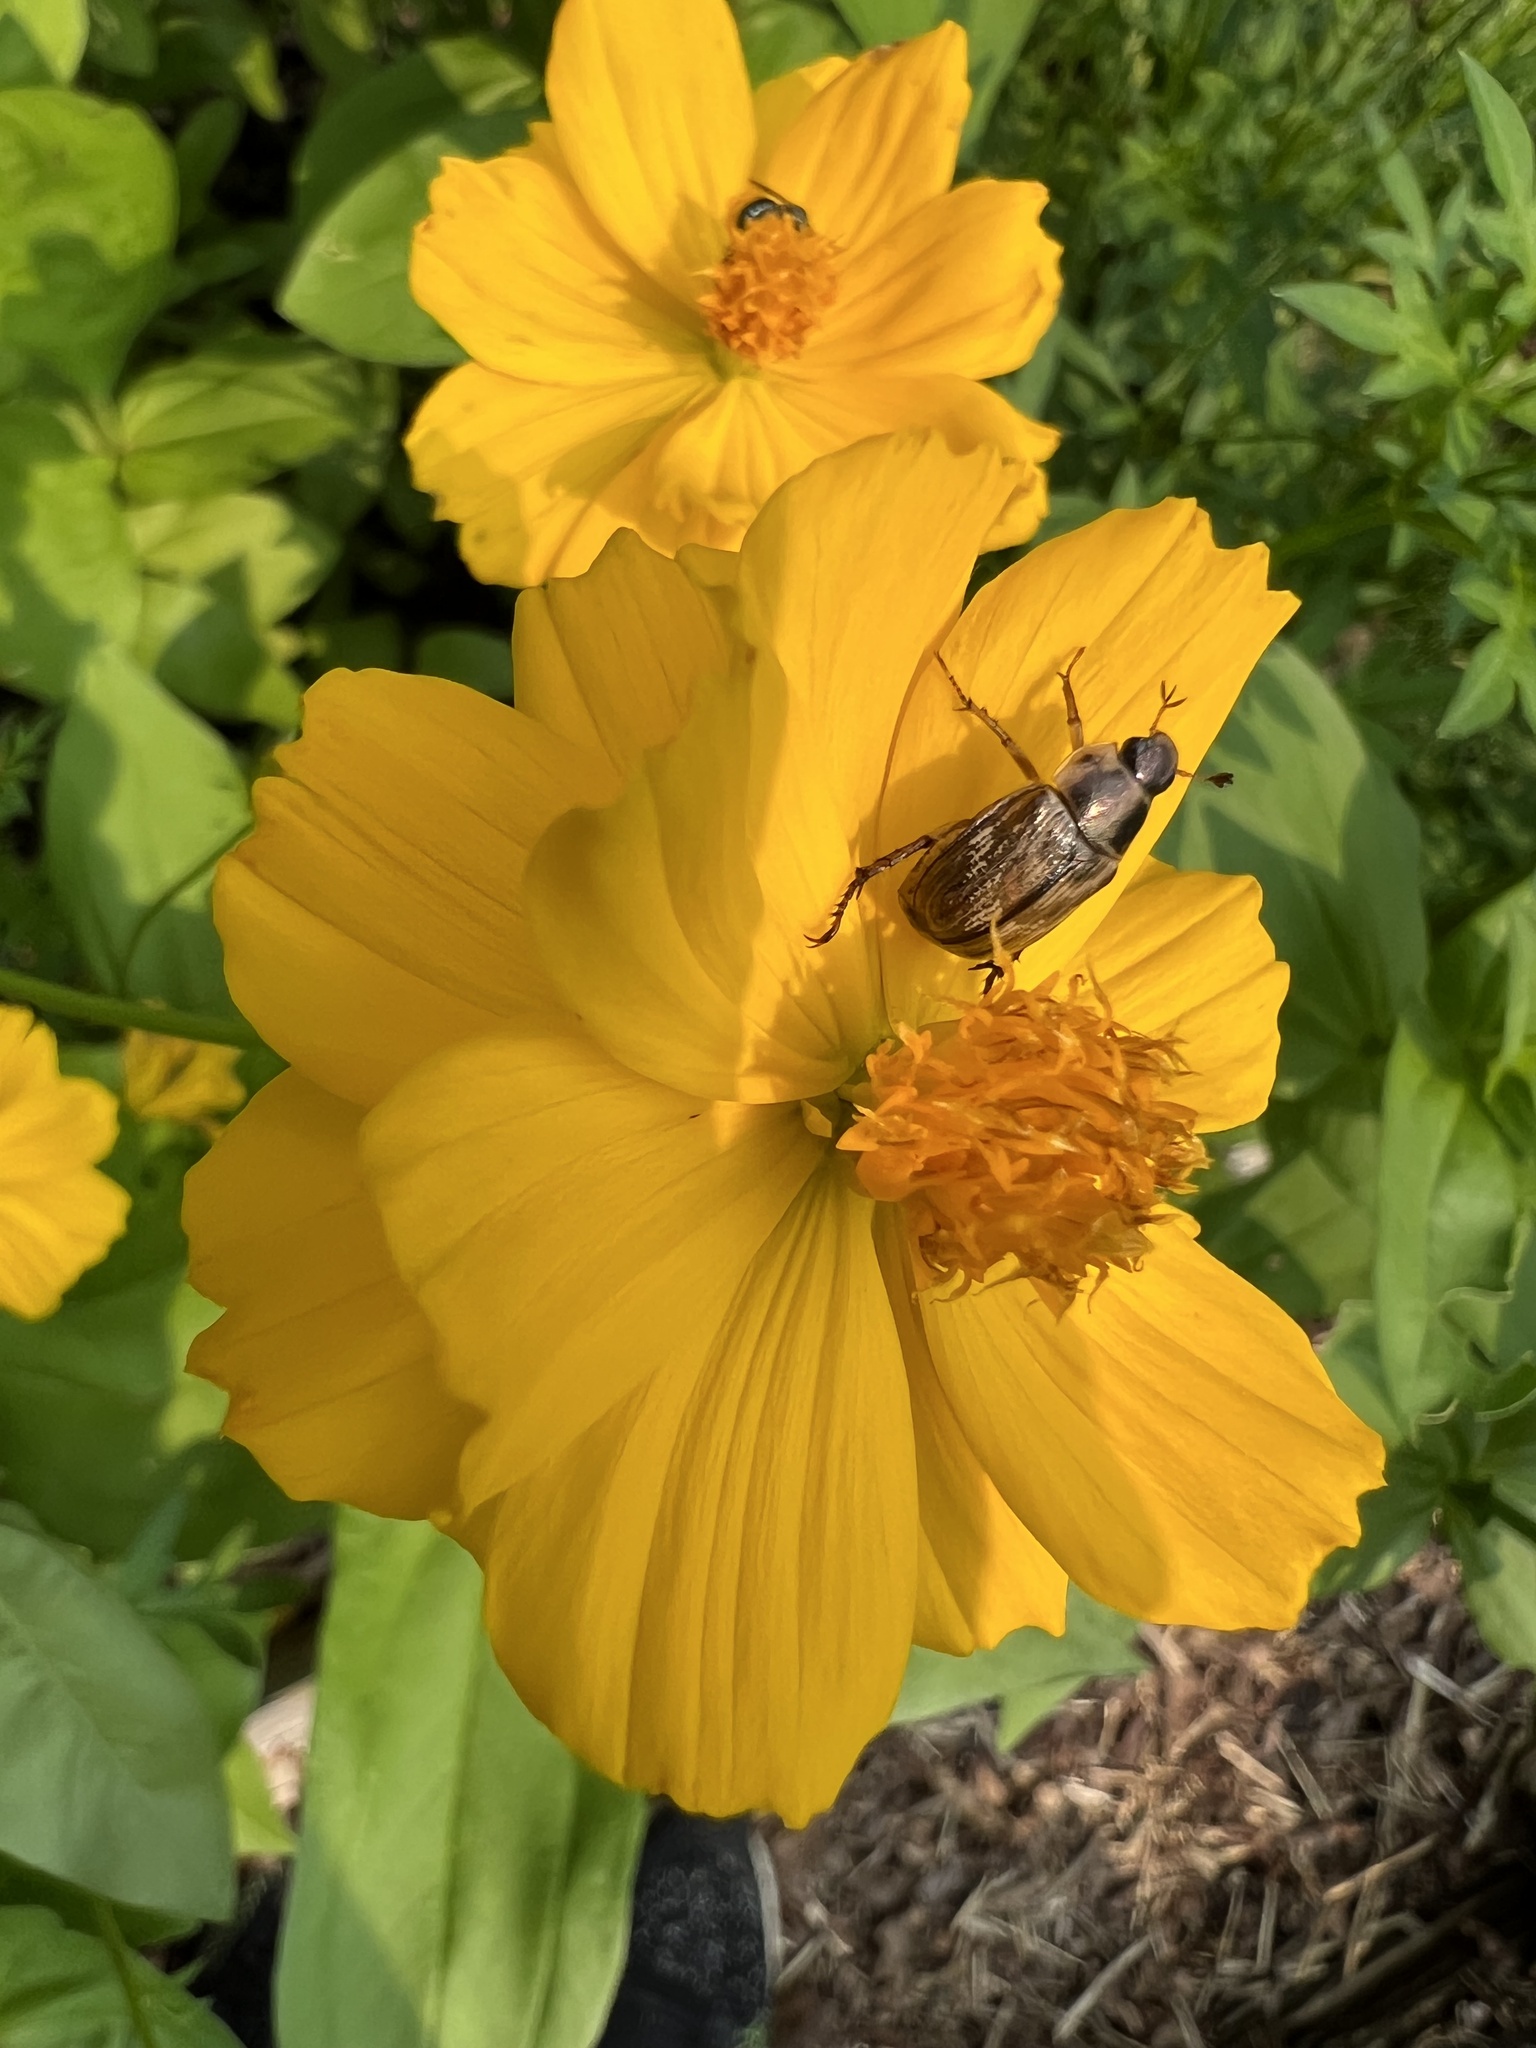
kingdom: Animalia
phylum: Arthropoda
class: Insecta
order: Coleoptera
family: Scarabaeidae
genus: Exomala
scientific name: Exomala orientalis
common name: Oriental beetle
